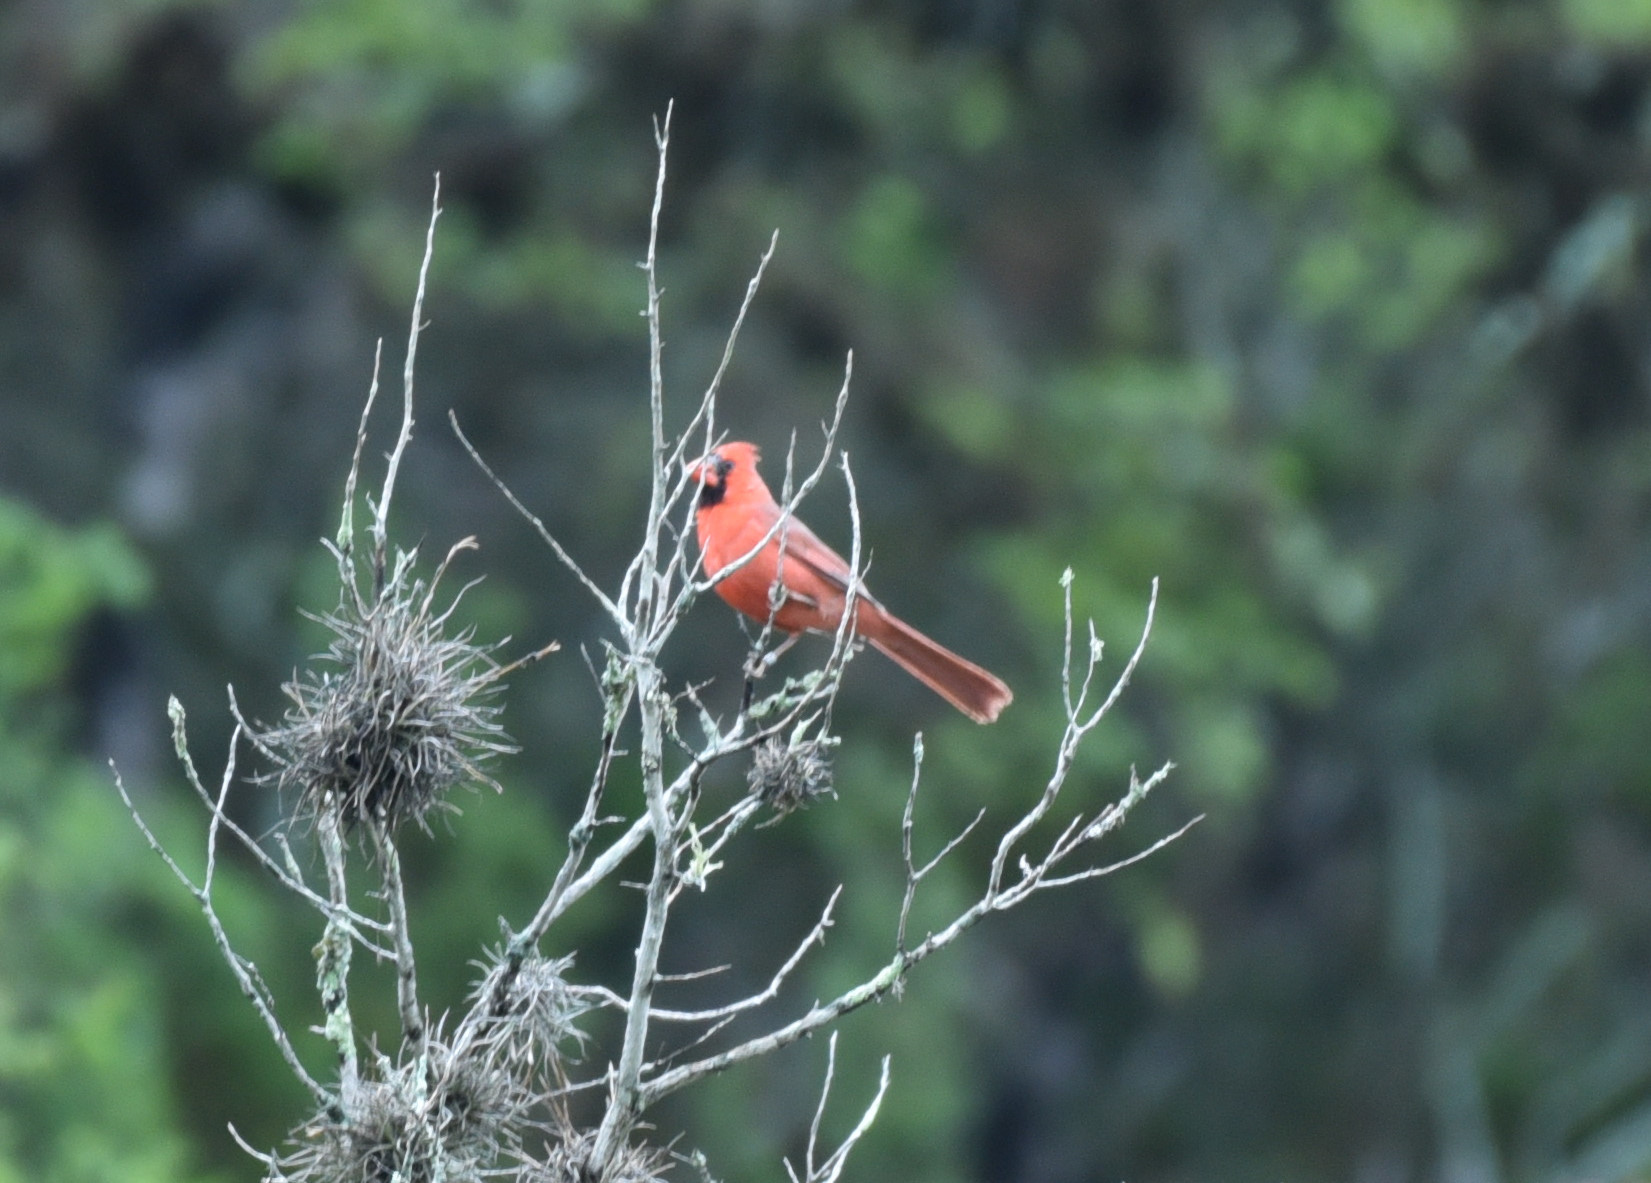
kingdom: Animalia
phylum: Chordata
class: Aves
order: Passeriformes
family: Cardinalidae
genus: Cardinalis
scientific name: Cardinalis cardinalis
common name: Northern cardinal
